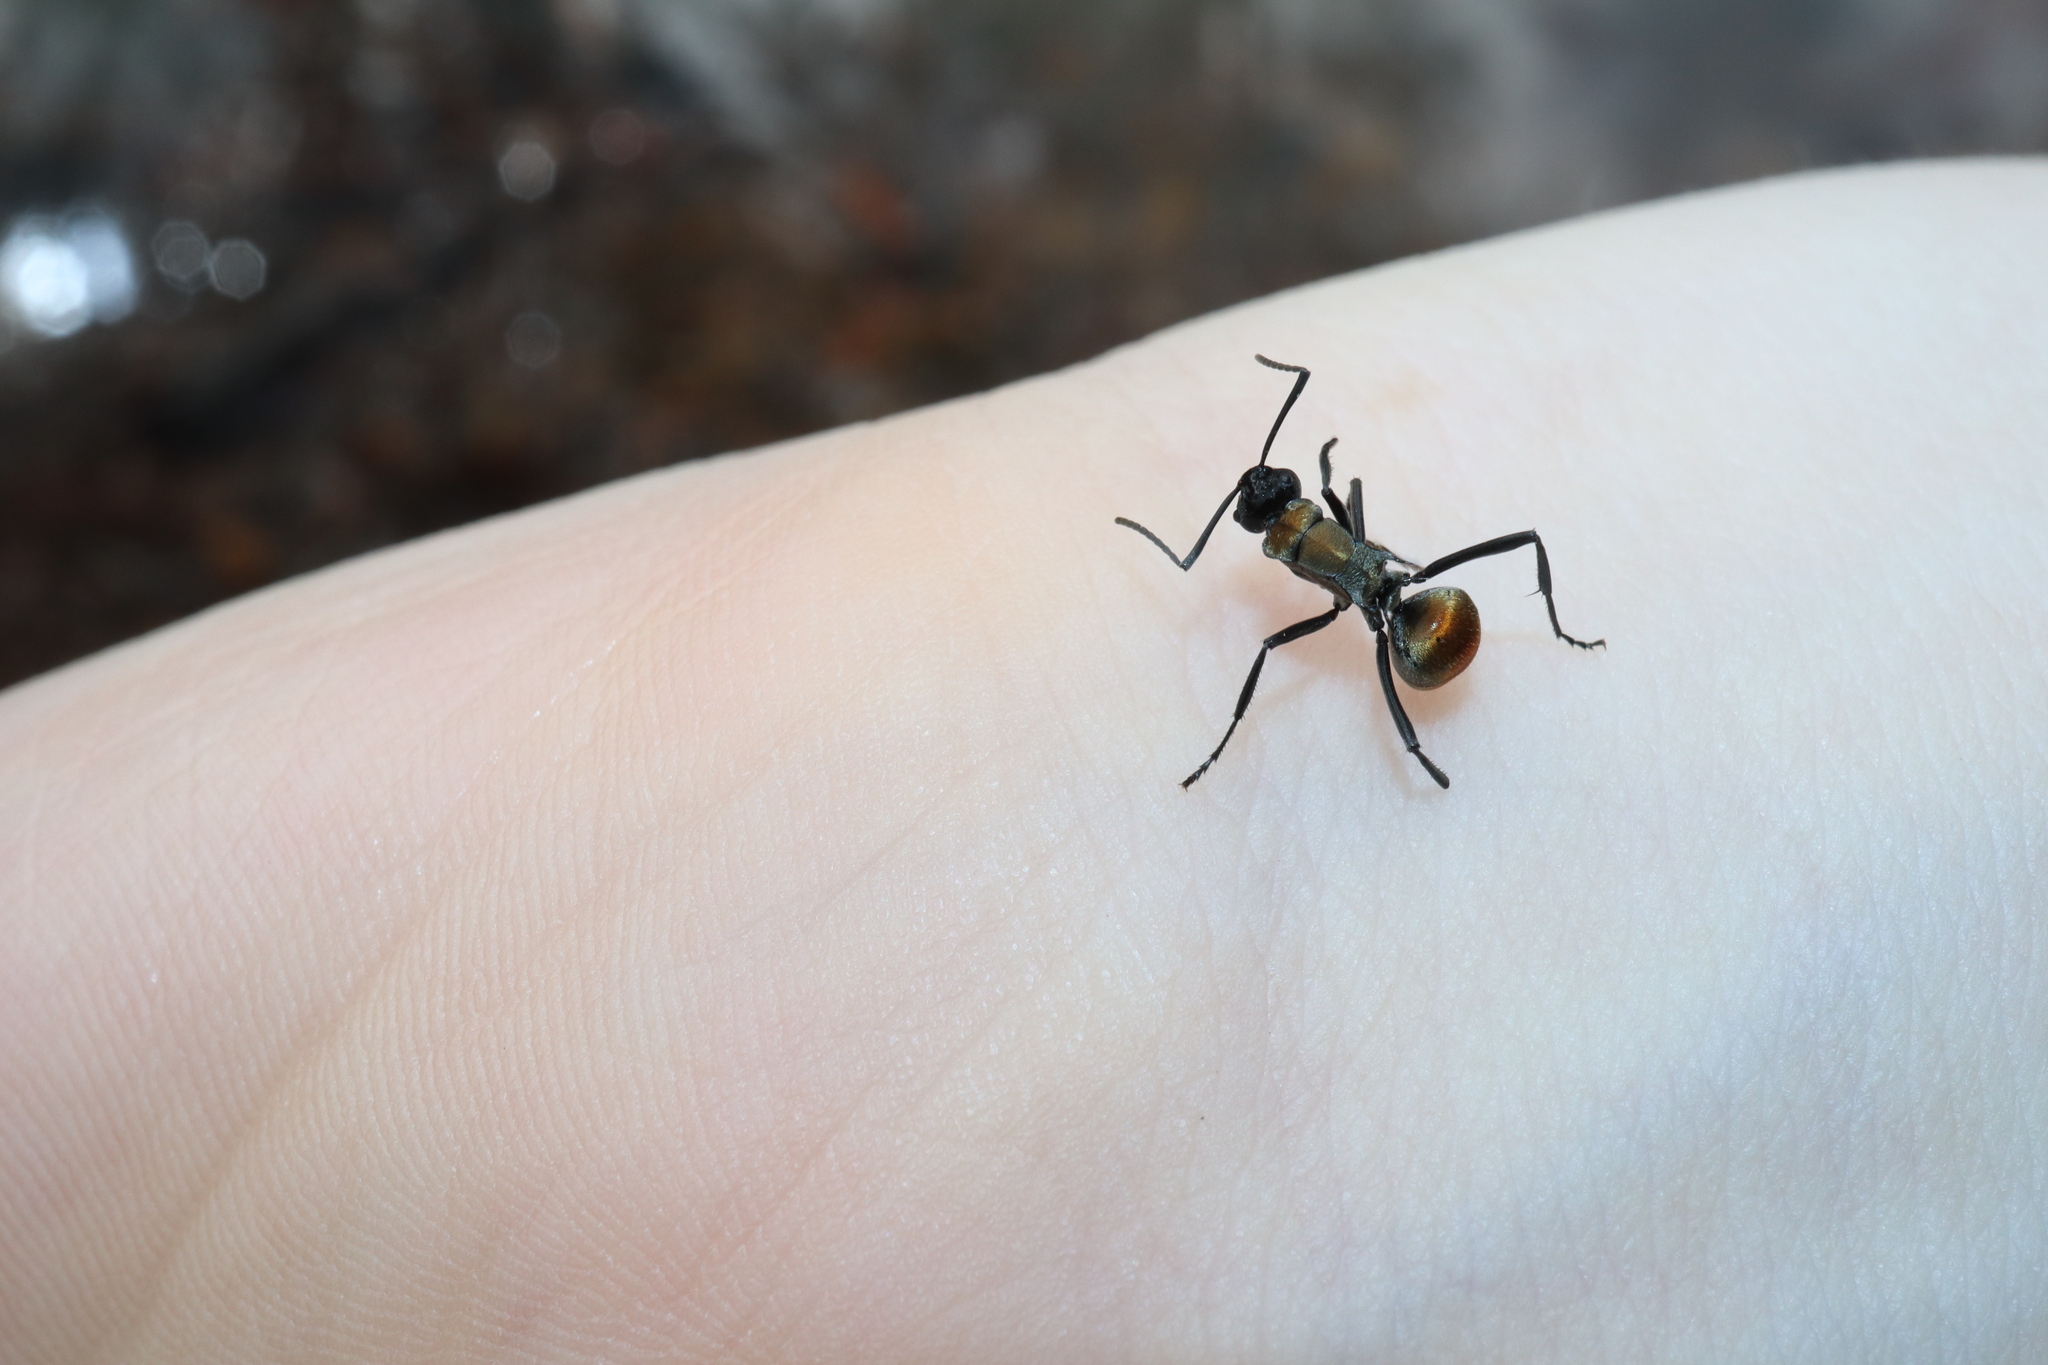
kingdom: Animalia
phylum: Arthropoda
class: Insecta
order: Hymenoptera
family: Formicidae
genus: Polyrhachis
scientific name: Polyrhachis ammon
